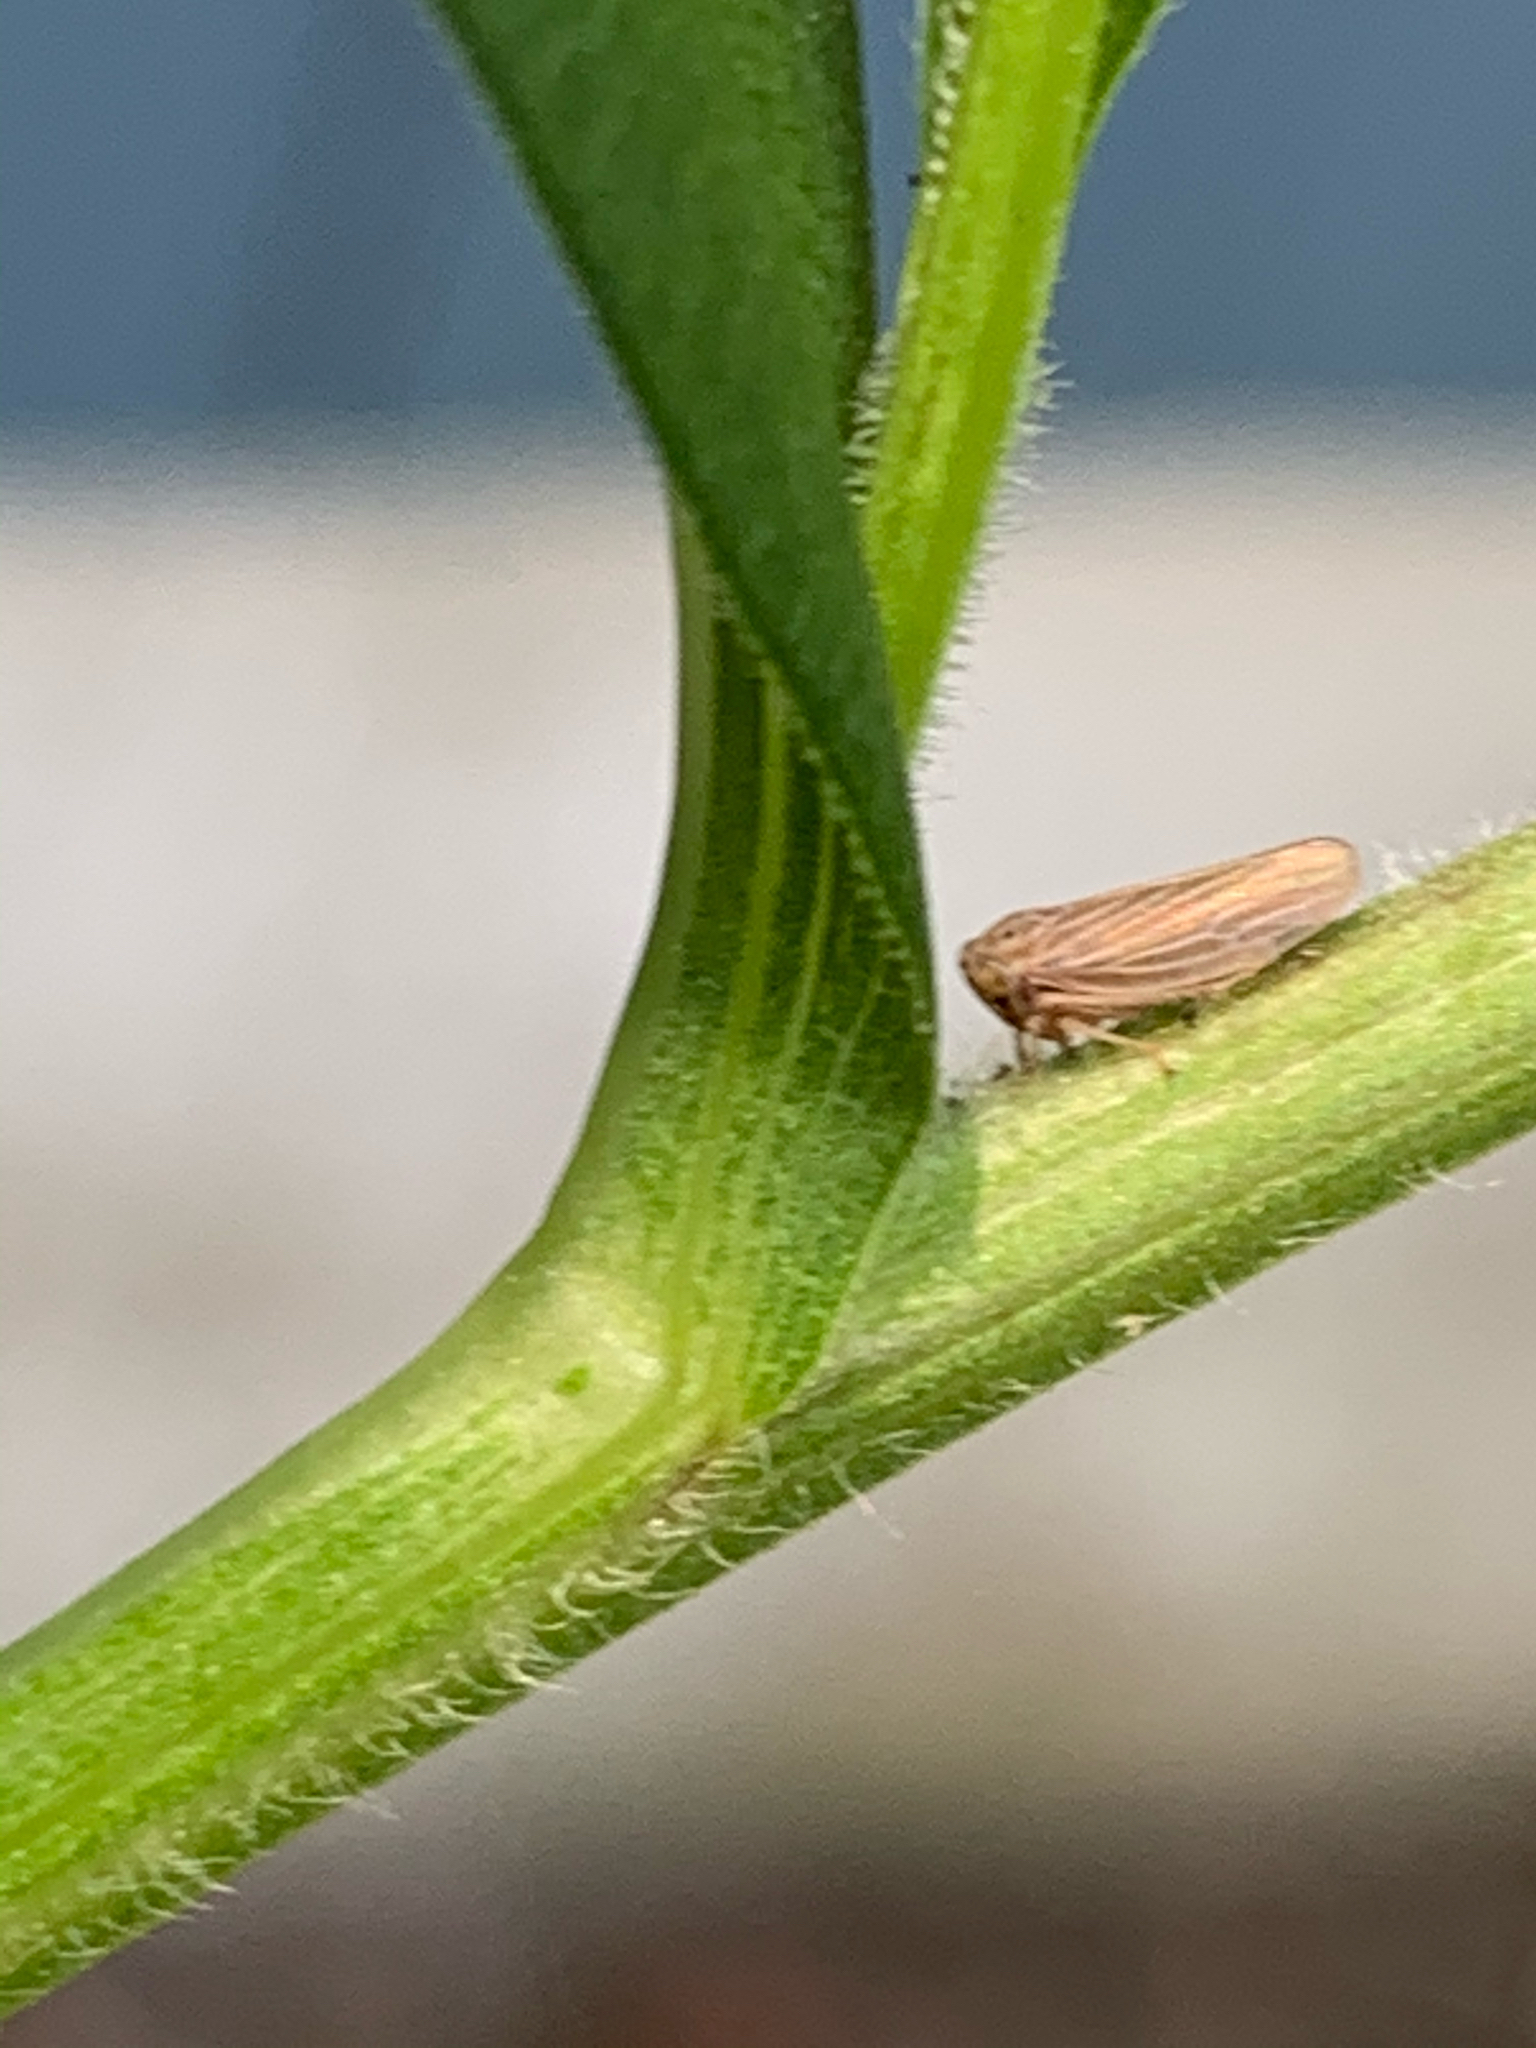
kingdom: Animalia
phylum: Arthropoda
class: Insecta
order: Hemiptera
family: Cicadellidae
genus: Agallia
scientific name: Agallia constricta
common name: The constricted leafhopper
